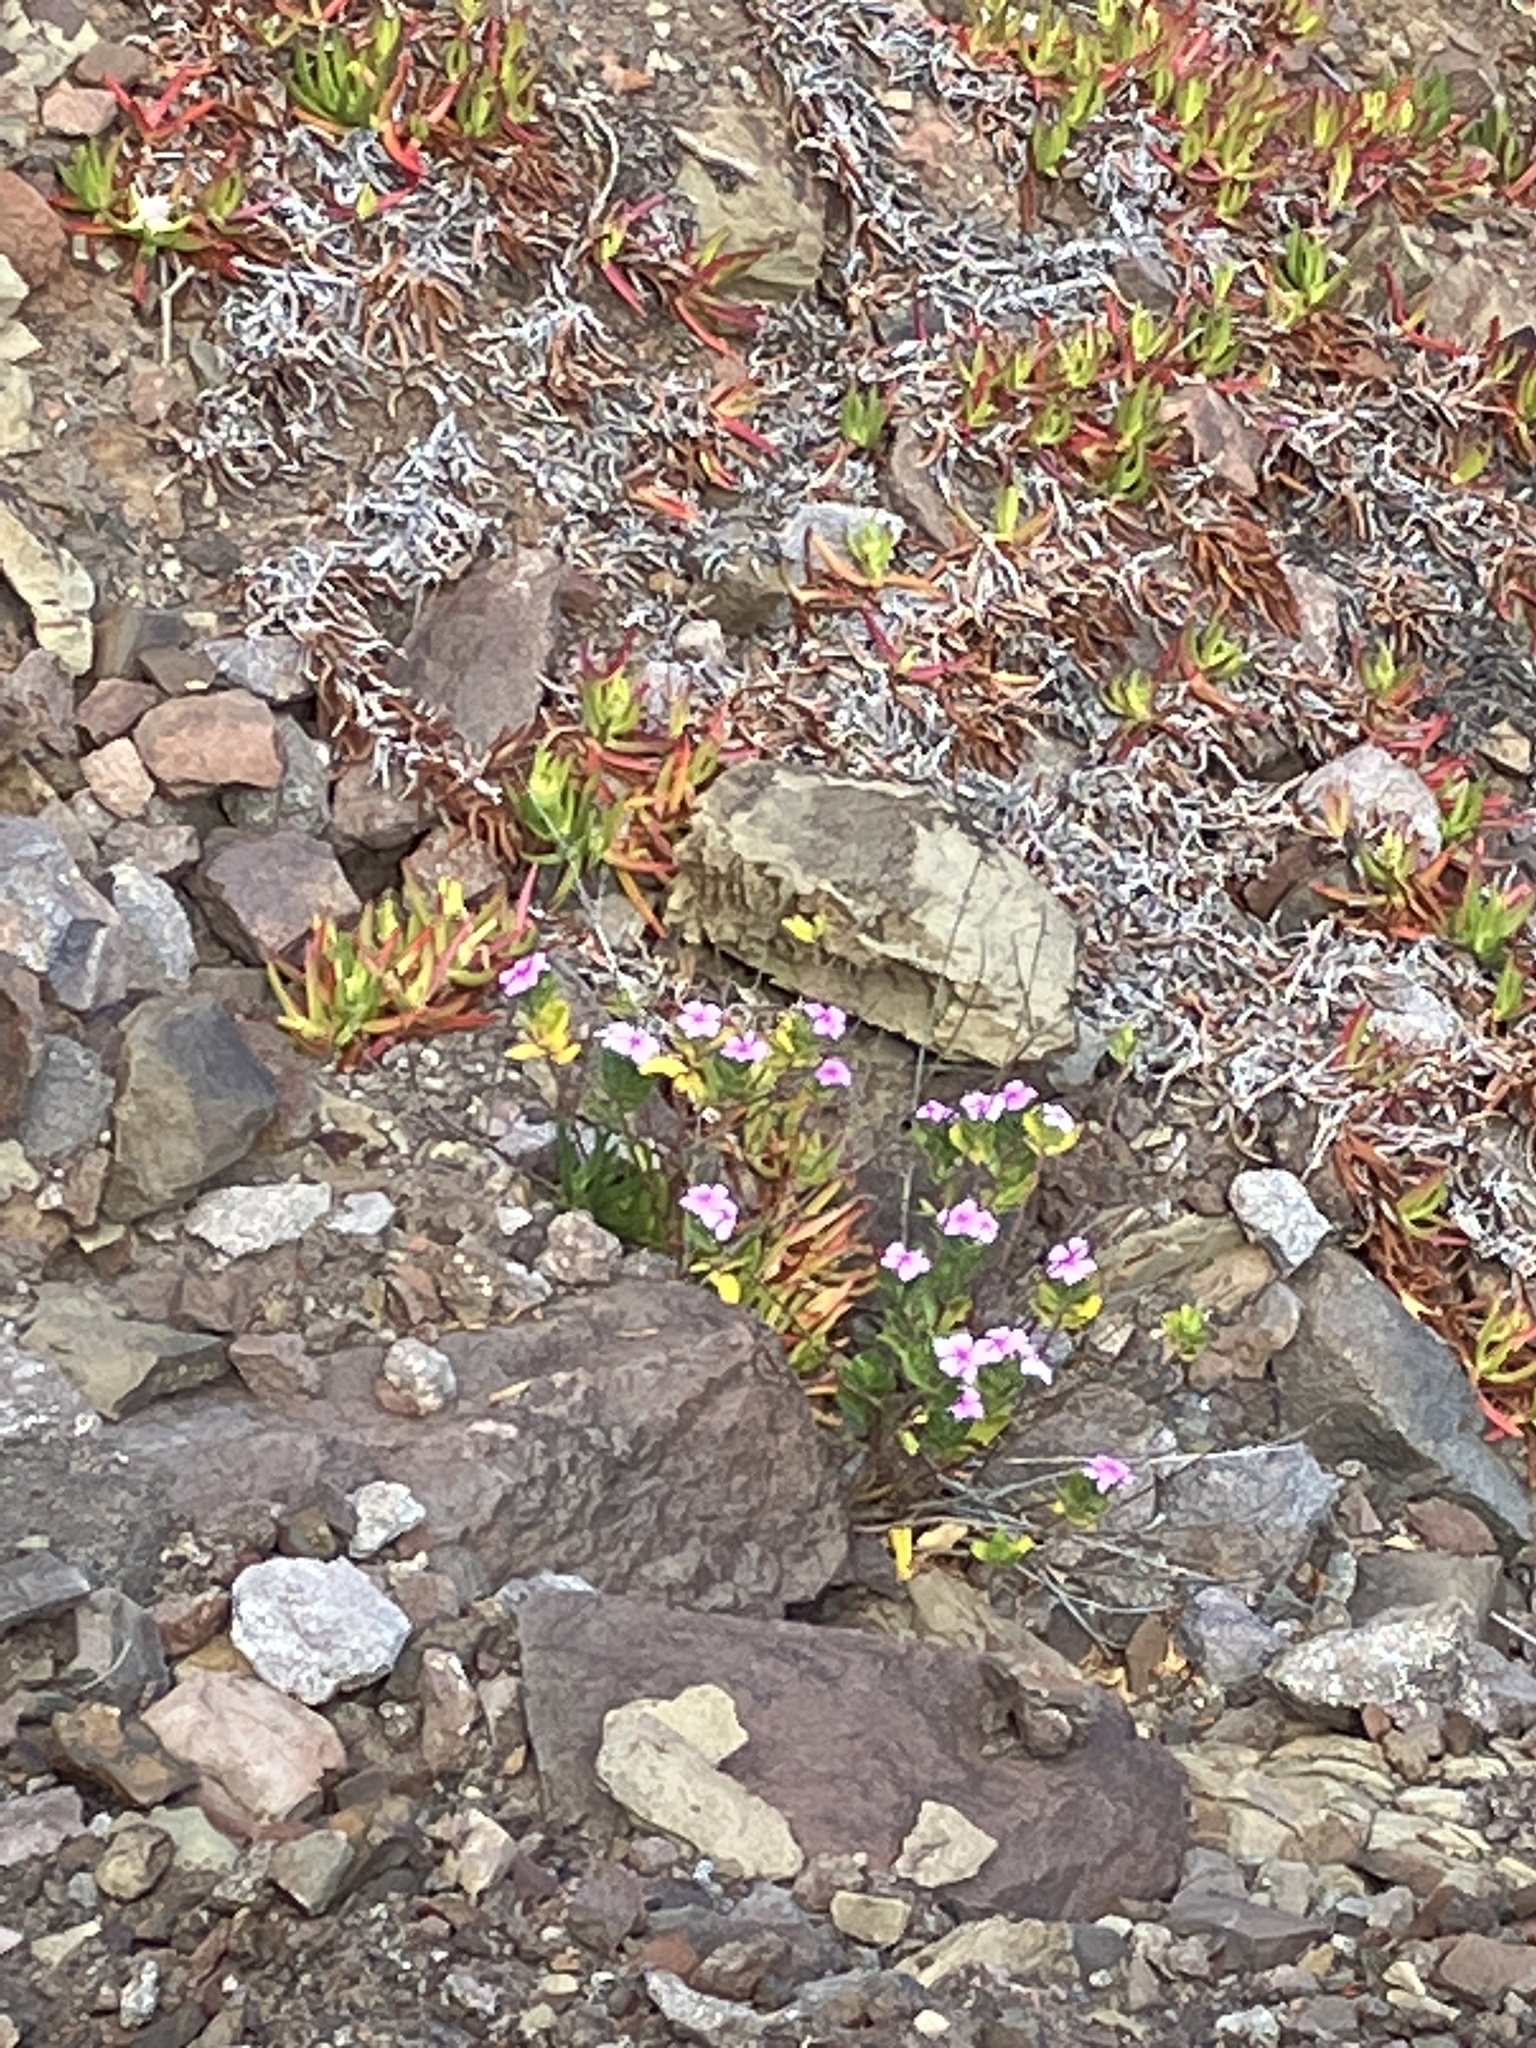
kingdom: Plantae
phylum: Tracheophyta
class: Magnoliopsida
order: Gentianales
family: Apocynaceae
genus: Catharanthus
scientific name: Catharanthus roseus
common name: Madagascar periwinkle
